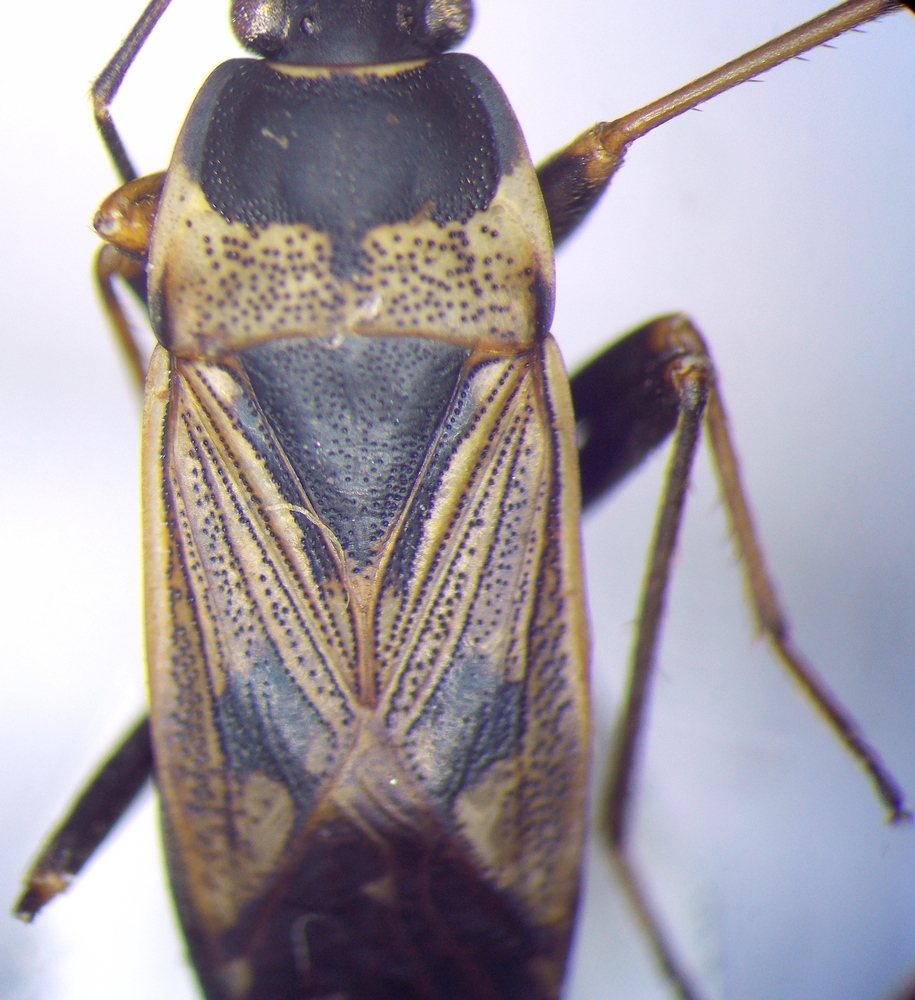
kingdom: Animalia
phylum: Arthropoda
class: Insecta
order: Hemiptera
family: Rhyparochromidae
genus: Rhyparochromus
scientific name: Rhyparochromus vulgaris
